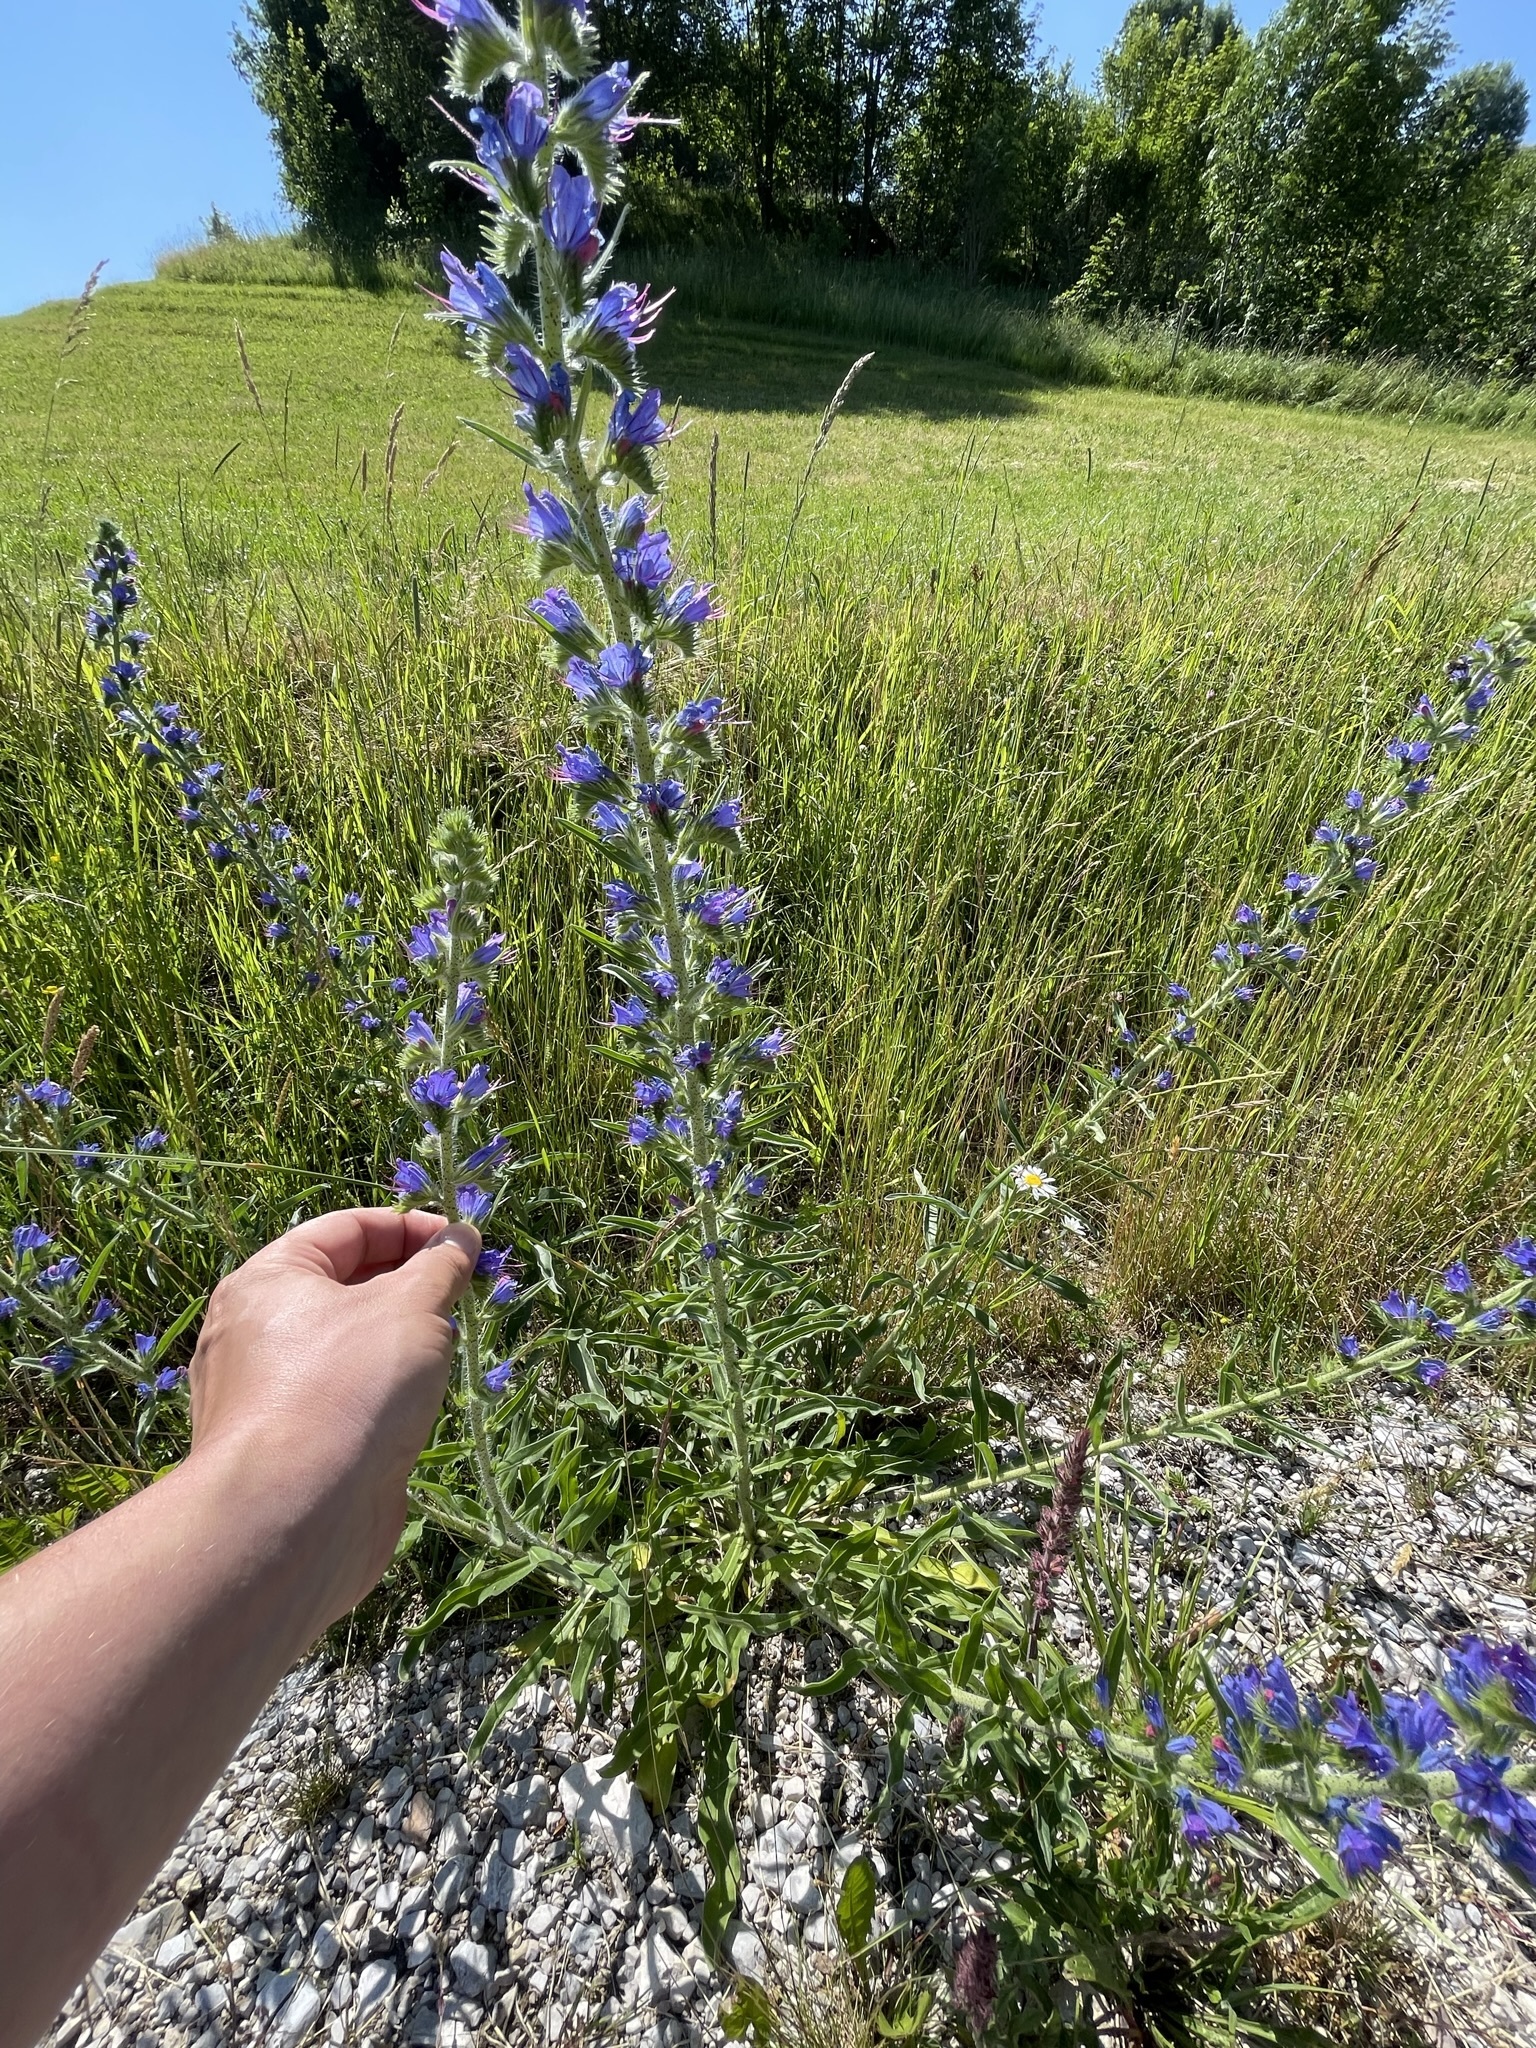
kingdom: Plantae
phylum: Tracheophyta
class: Magnoliopsida
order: Boraginales
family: Boraginaceae
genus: Echium
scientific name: Echium vulgare
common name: Common viper's bugloss
